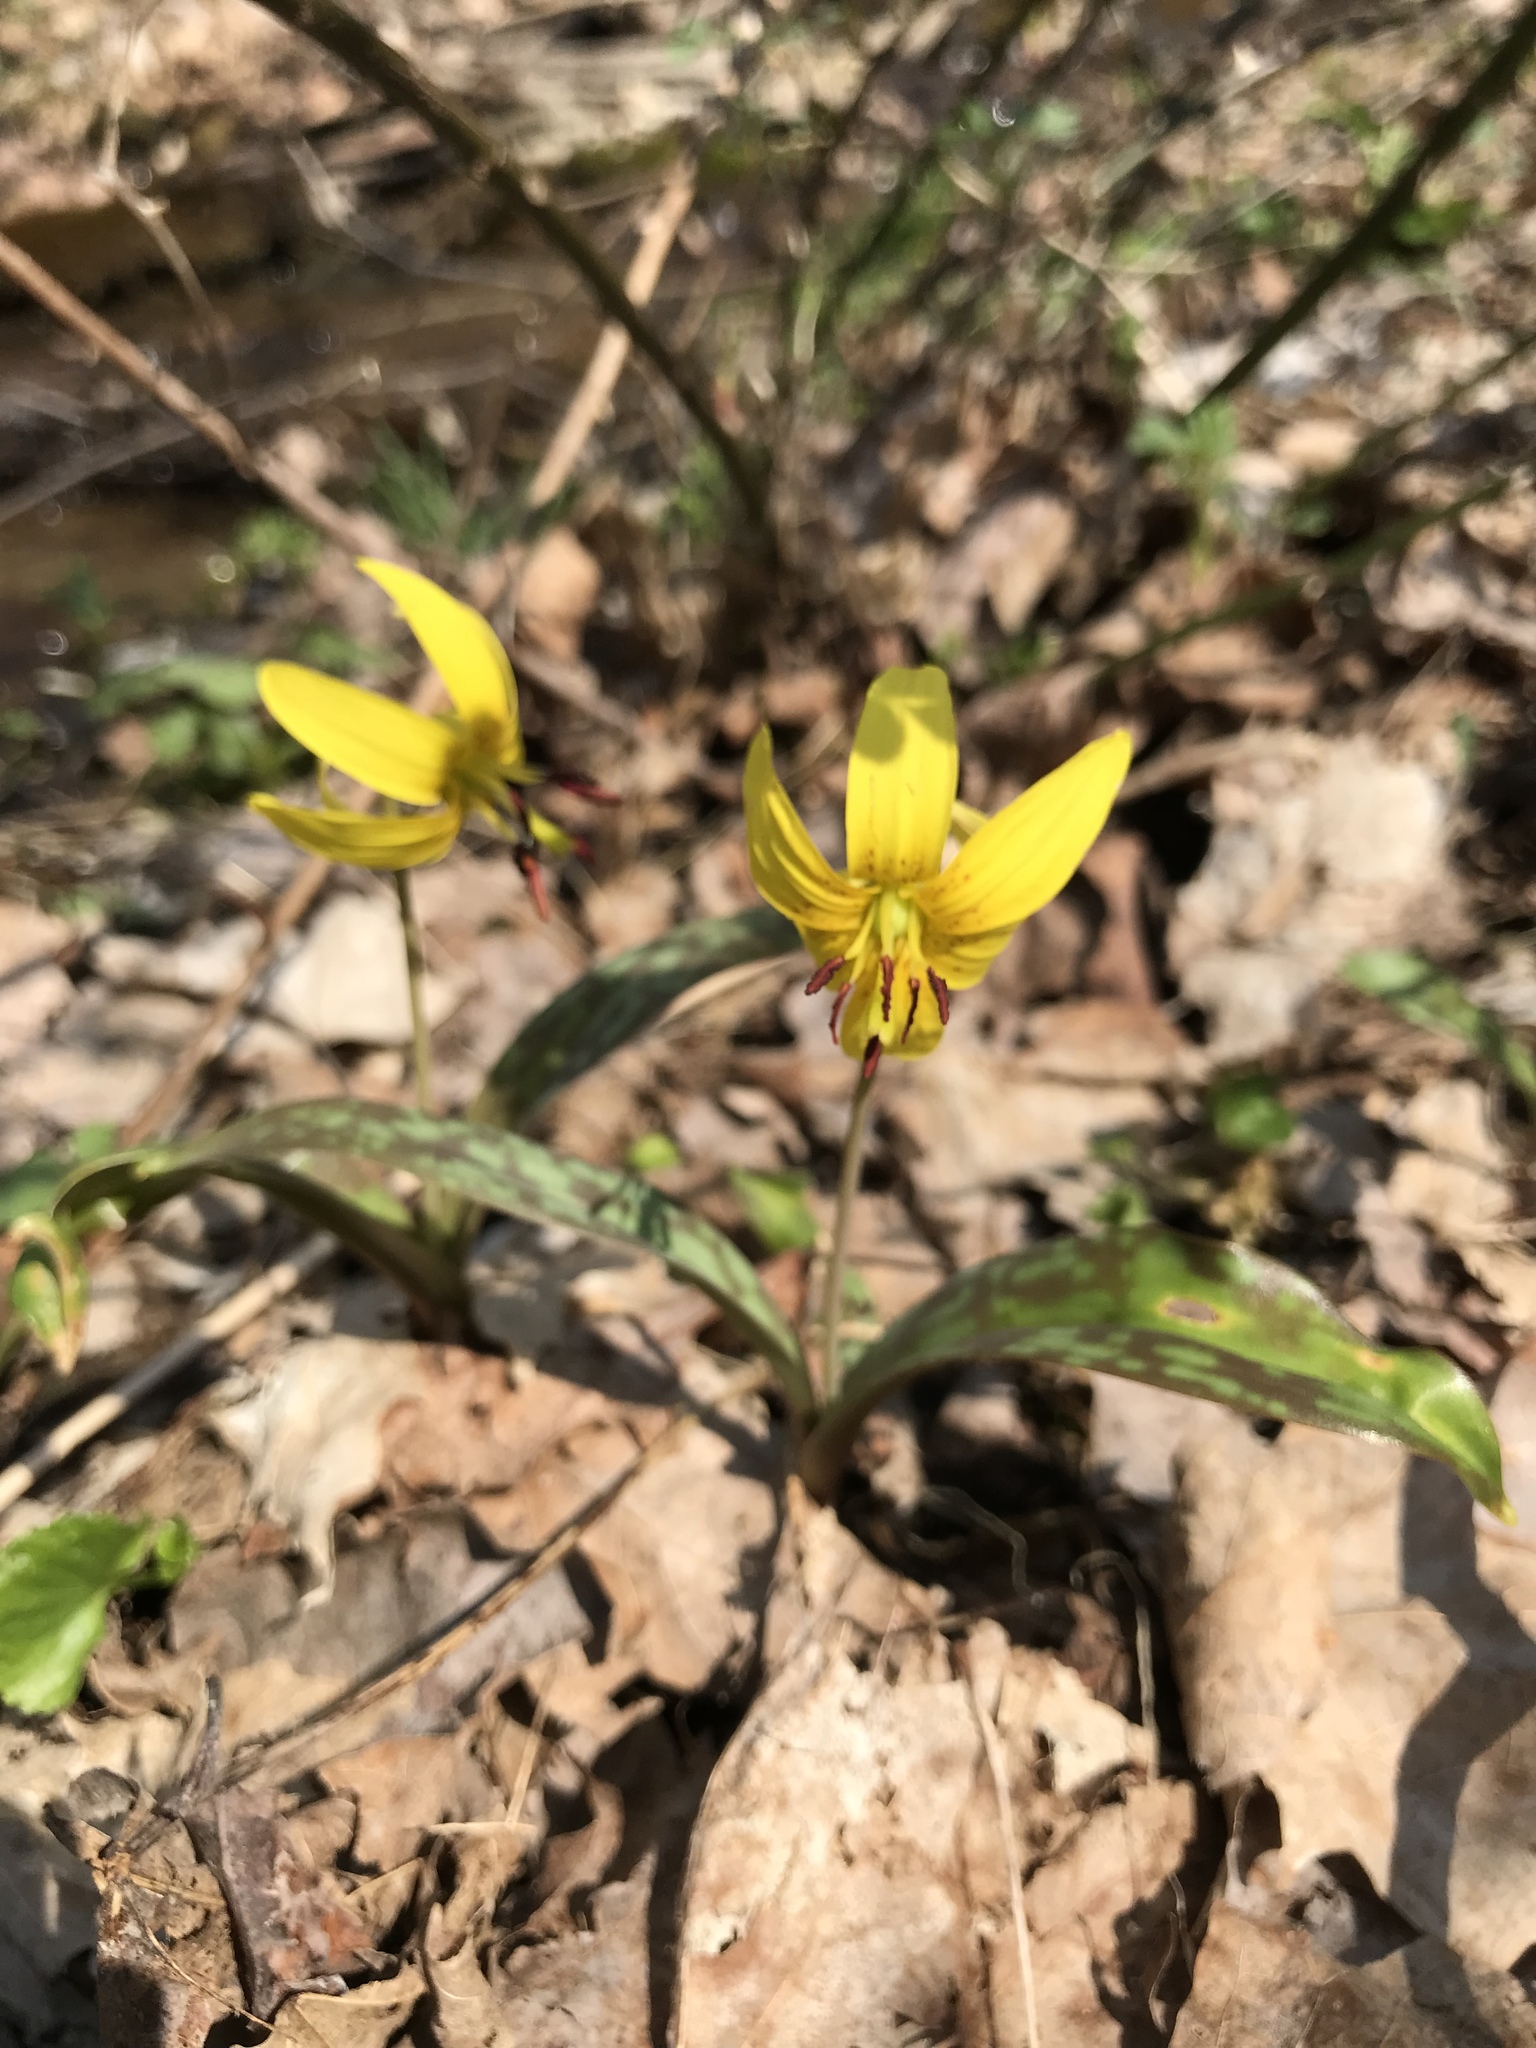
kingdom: Plantae
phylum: Tracheophyta
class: Liliopsida
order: Liliales
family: Liliaceae
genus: Erythronium
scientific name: Erythronium americanum
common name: Yellow adder's-tongue
